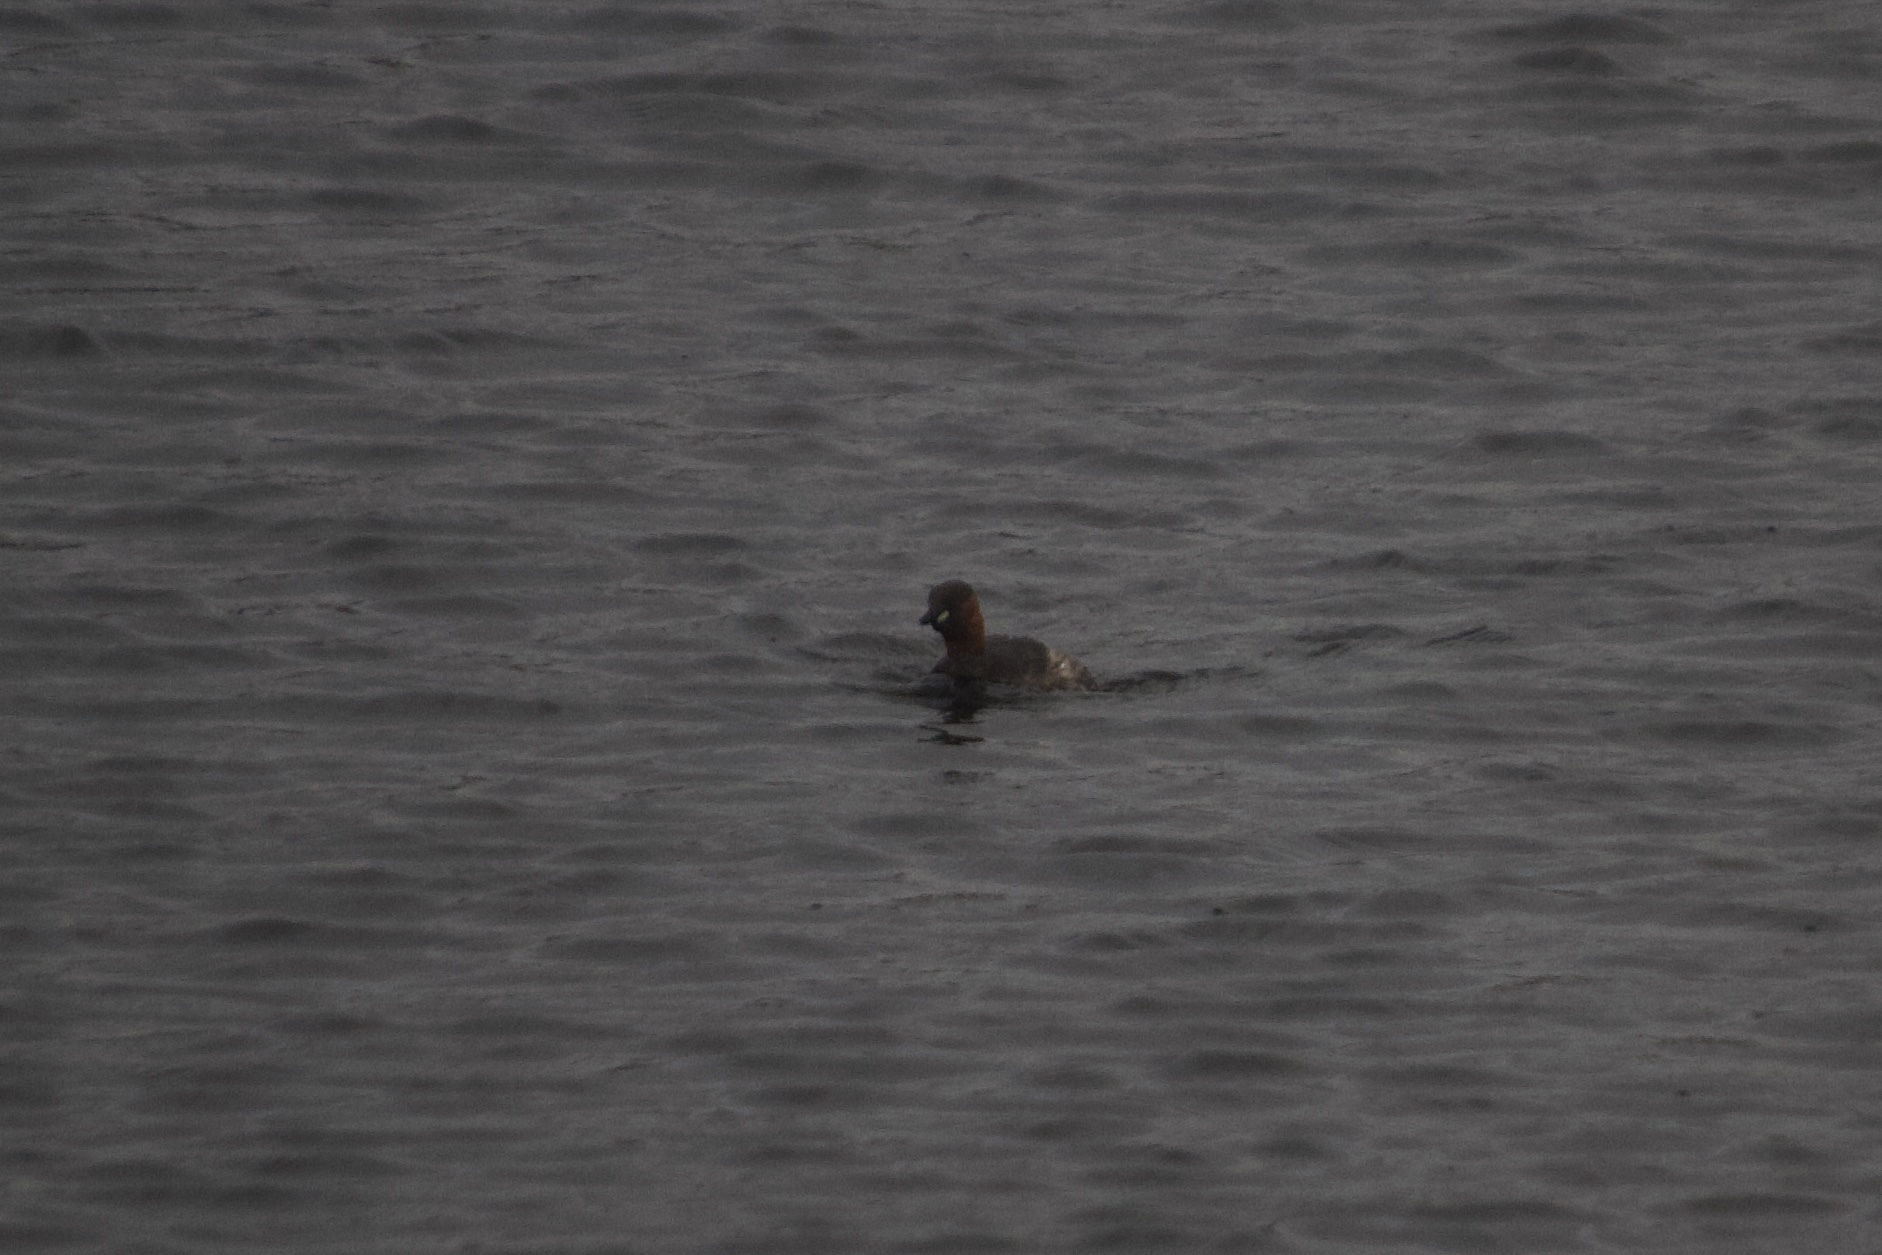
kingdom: Animalia
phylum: Chordata
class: Aves
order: Podicipediformes
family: Podicipedidae
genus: Tachybaptus
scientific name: Tachybaptus ruficollis
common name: Little grebe
